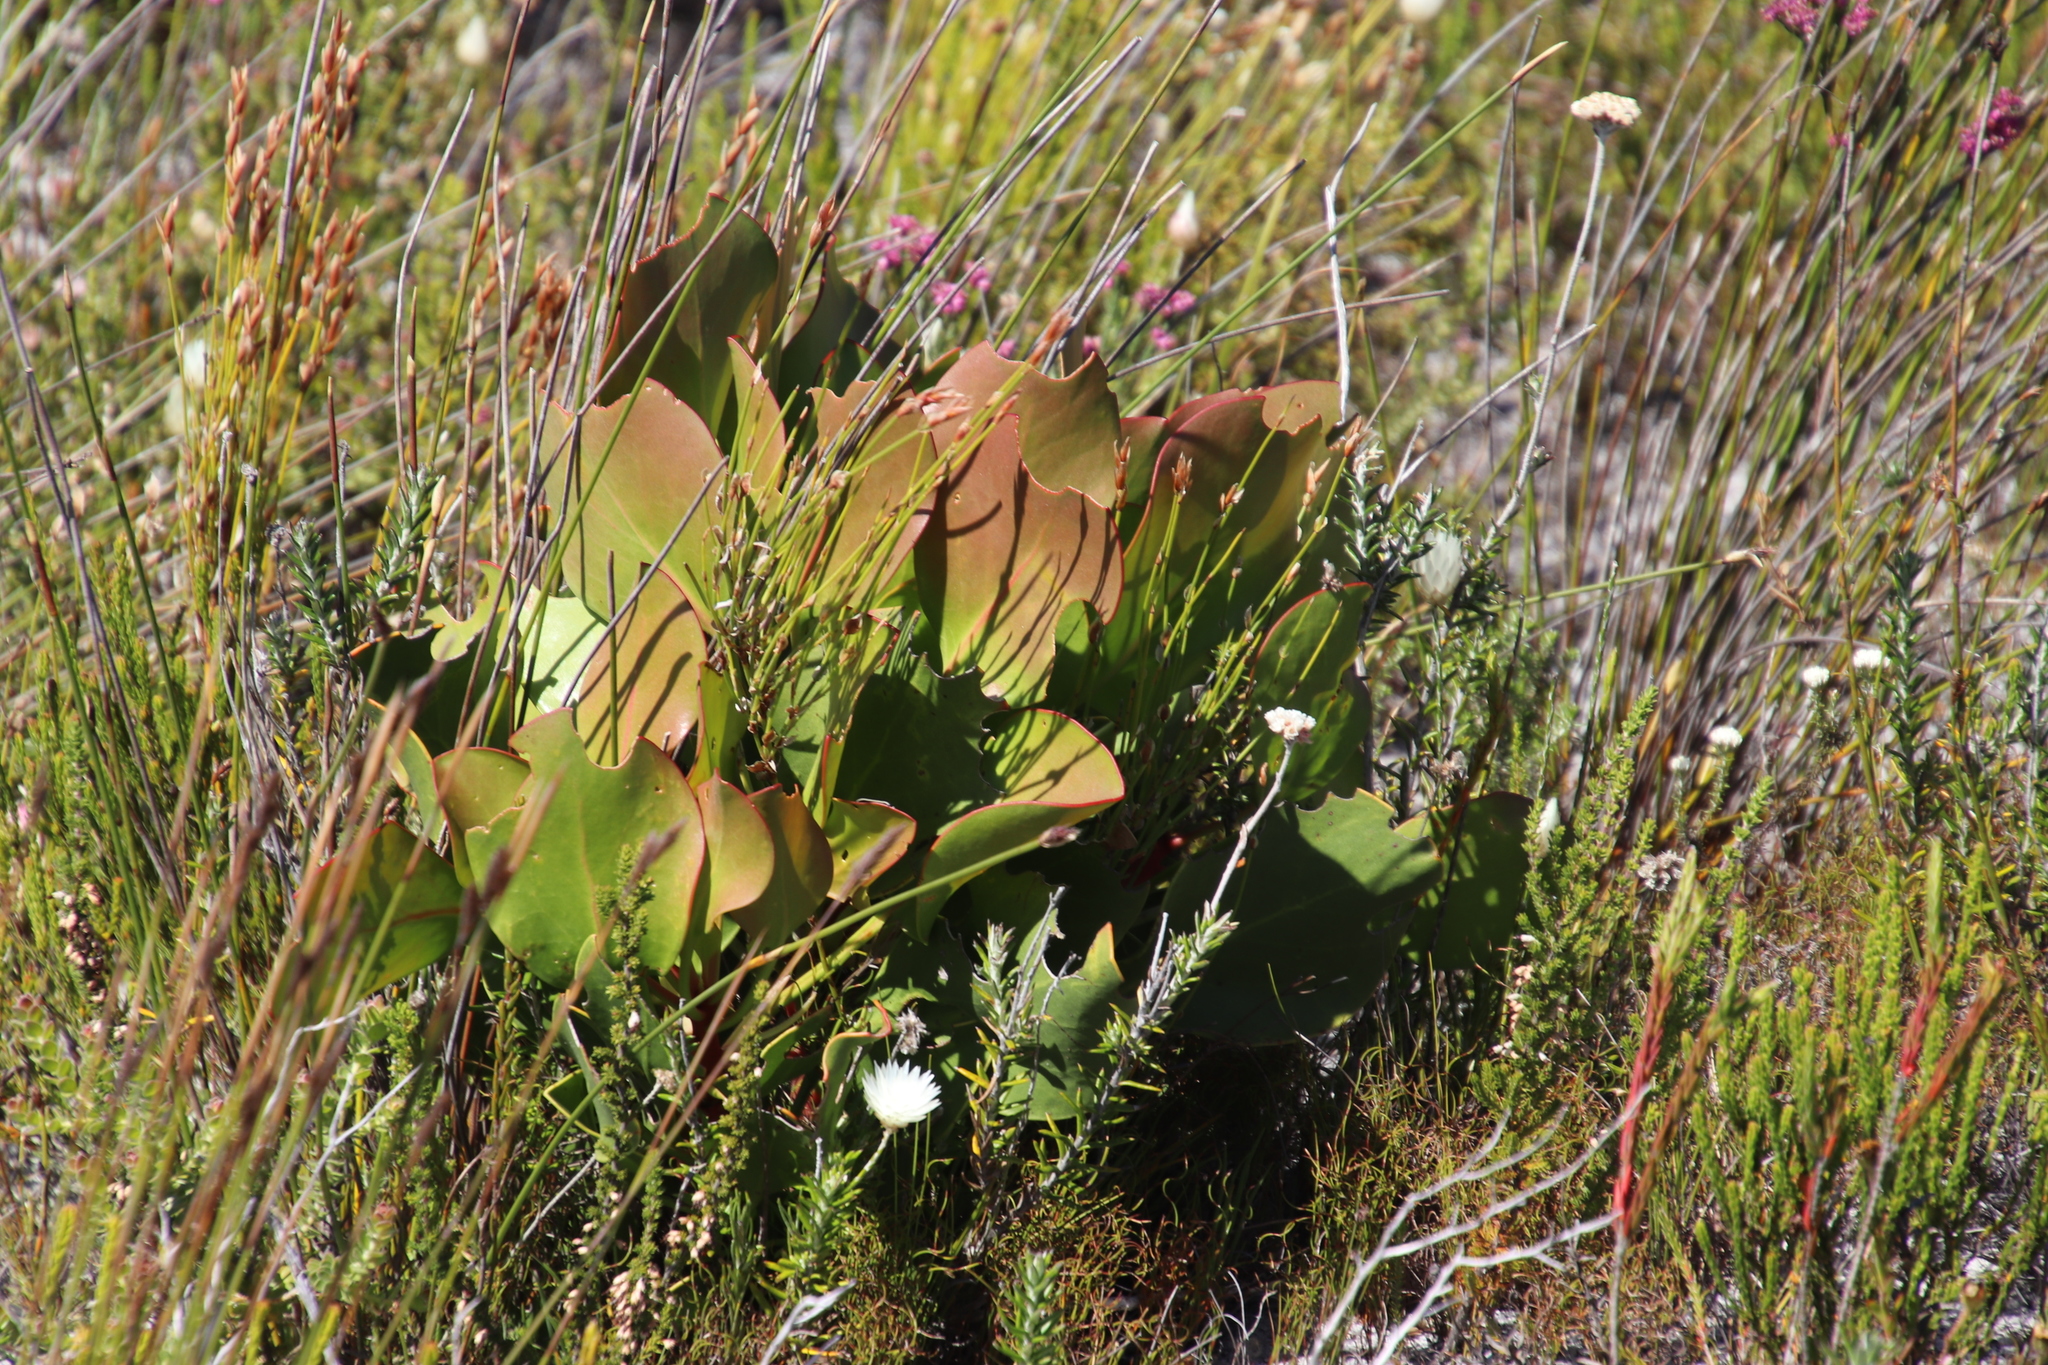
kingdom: Plantae
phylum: Tracheophyta
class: Magnoliopsida
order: Proteales
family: Proteaceae
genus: Protea
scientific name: Protea cynaroides
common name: King protea
